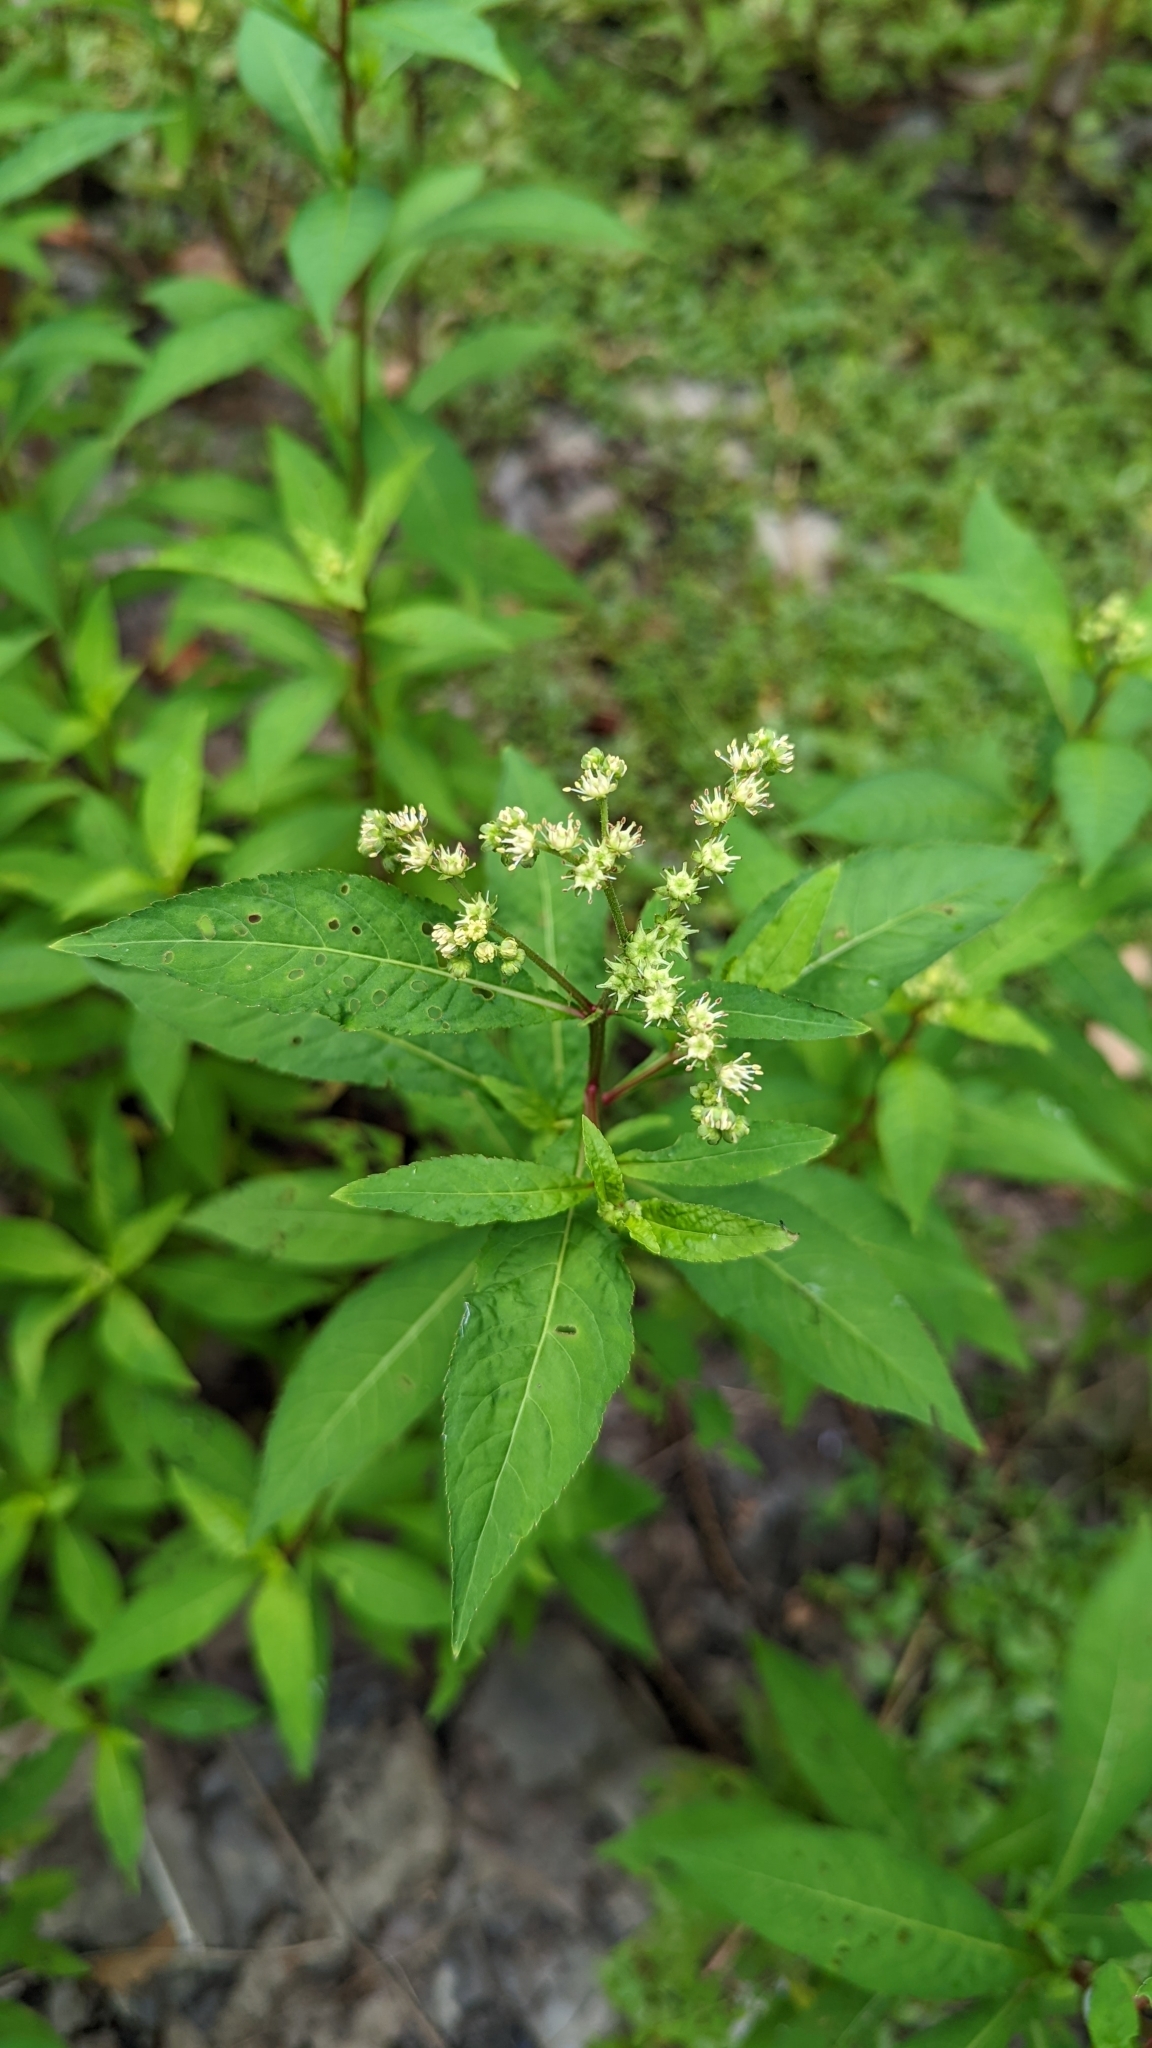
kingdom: Plantae
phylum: Tracheophyta
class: Magnoliopsida
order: Saxifragales
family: Penthoraceae
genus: Penthorum
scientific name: Penthorum sedoides
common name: Ditch stonecrop
